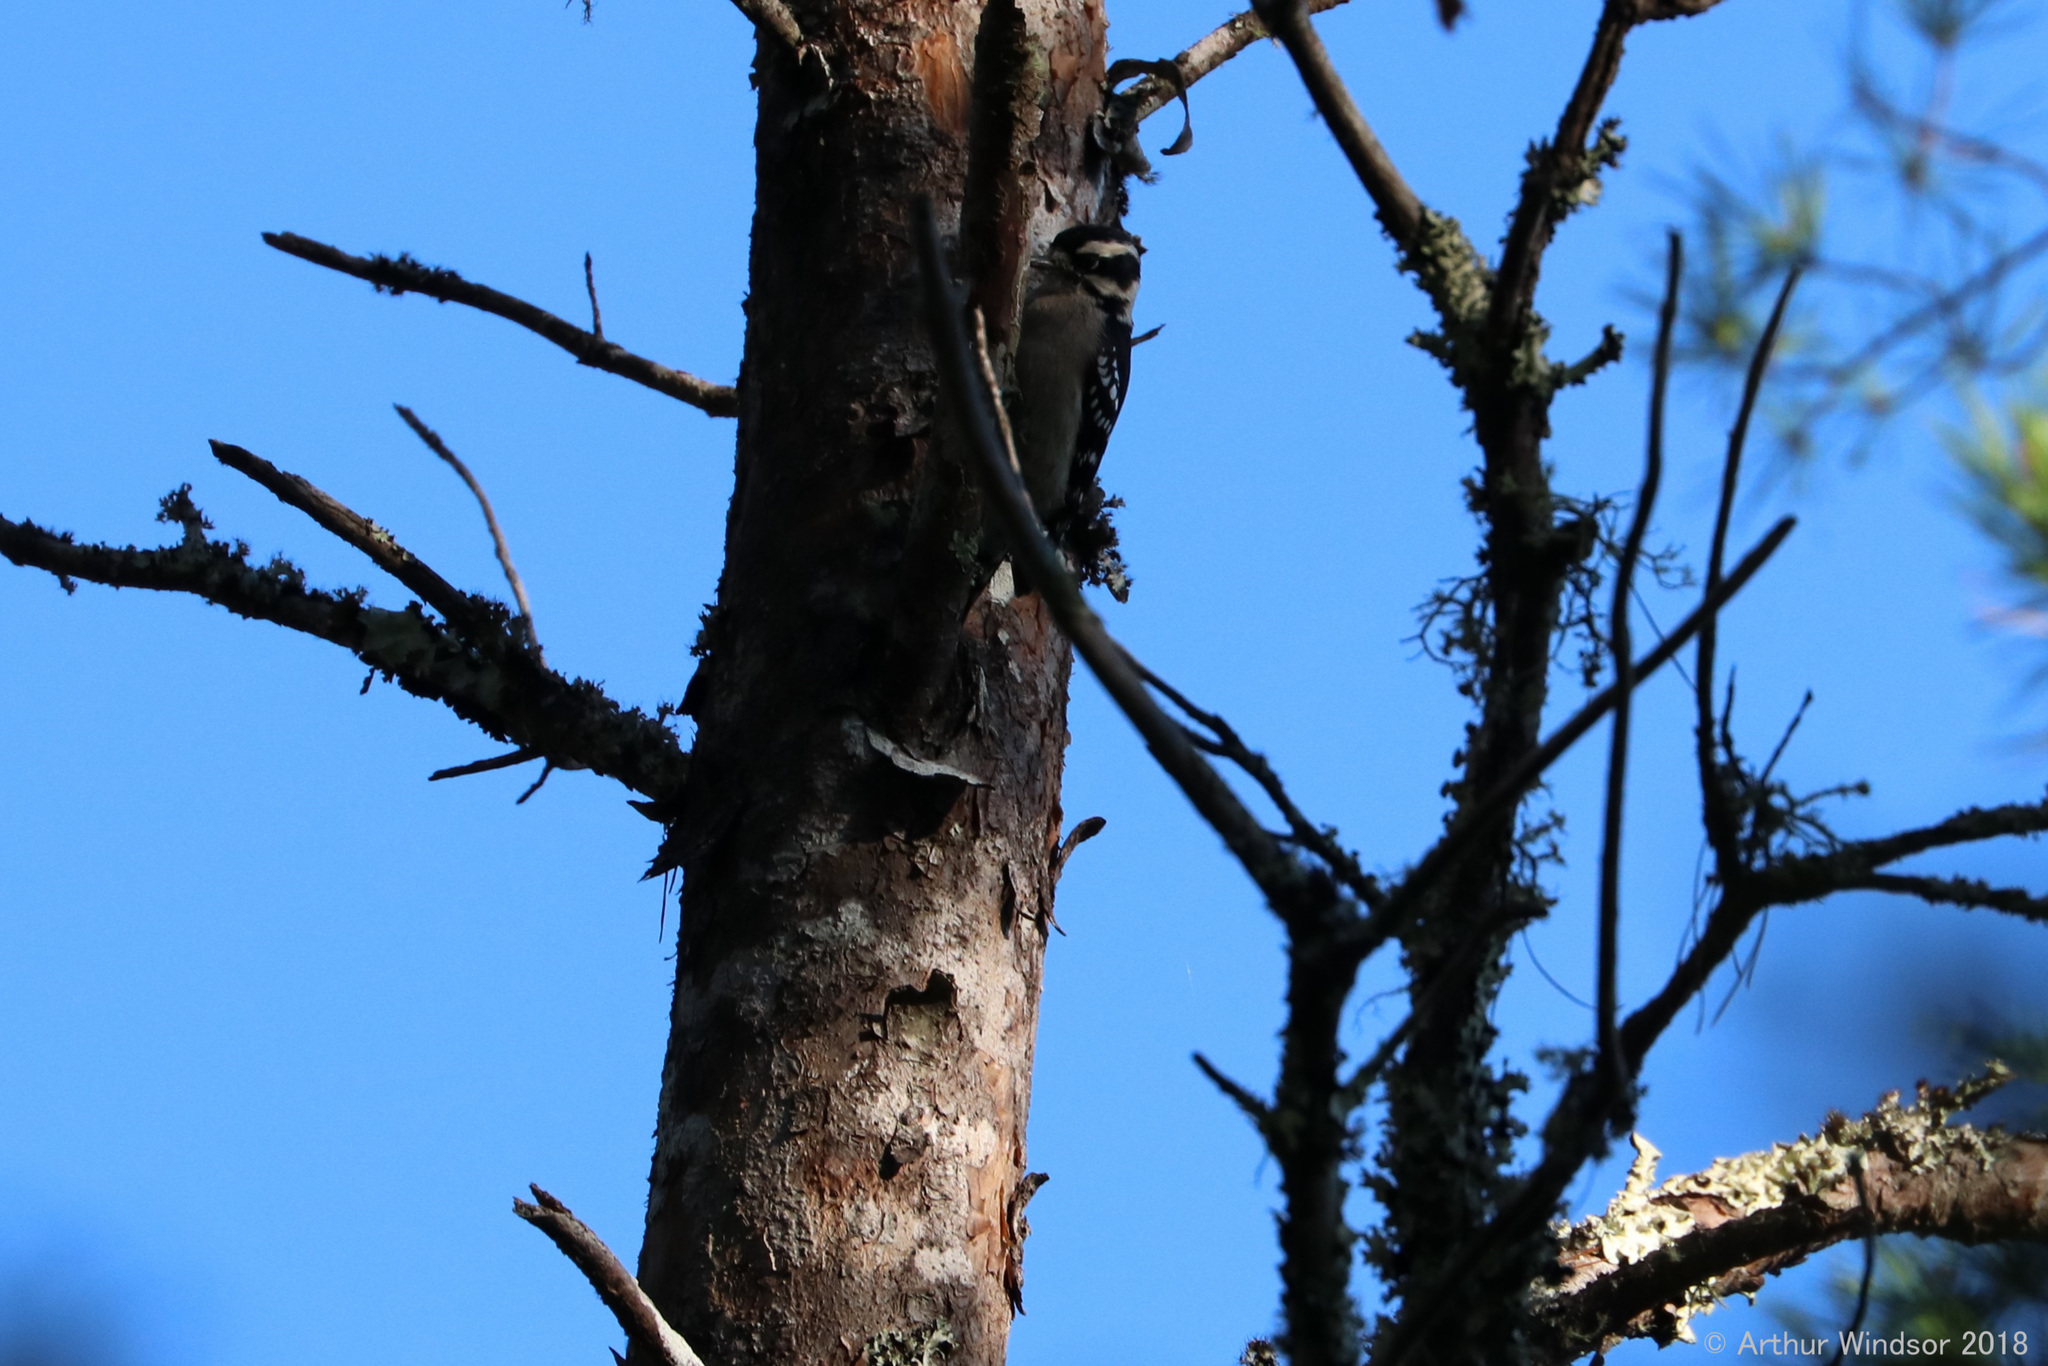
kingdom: Animalia
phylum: Chordata
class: Aves
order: Piciformes
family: Picidae
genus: Dryobates
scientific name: Dryobates pubescens
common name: Downy woodpecker
